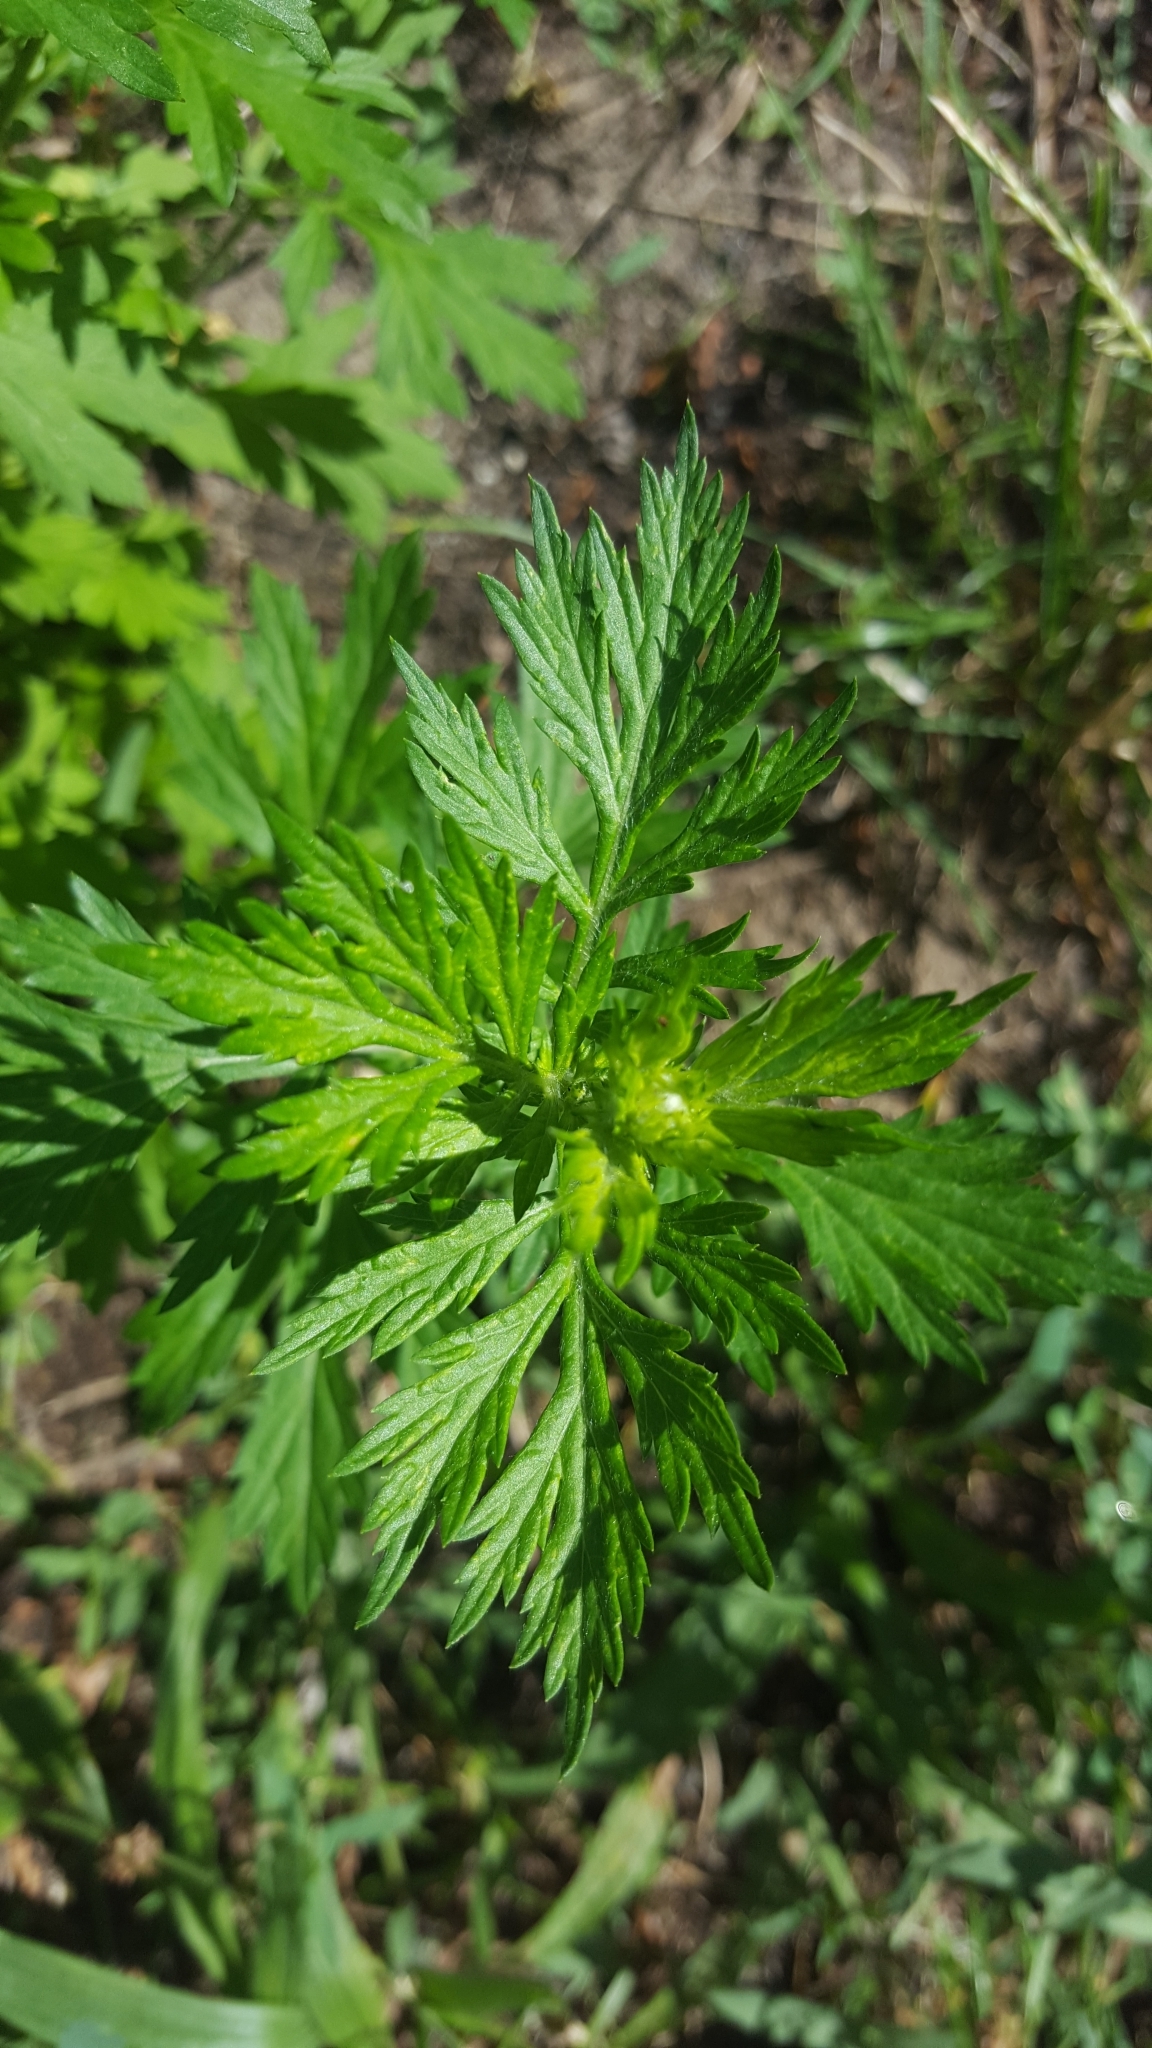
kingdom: Plantae
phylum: Tracheophyta
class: Magnoliopsida
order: Asterales
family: Asteraceae
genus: Artemisia
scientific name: Artemisia vulgaris
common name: Mugwort
